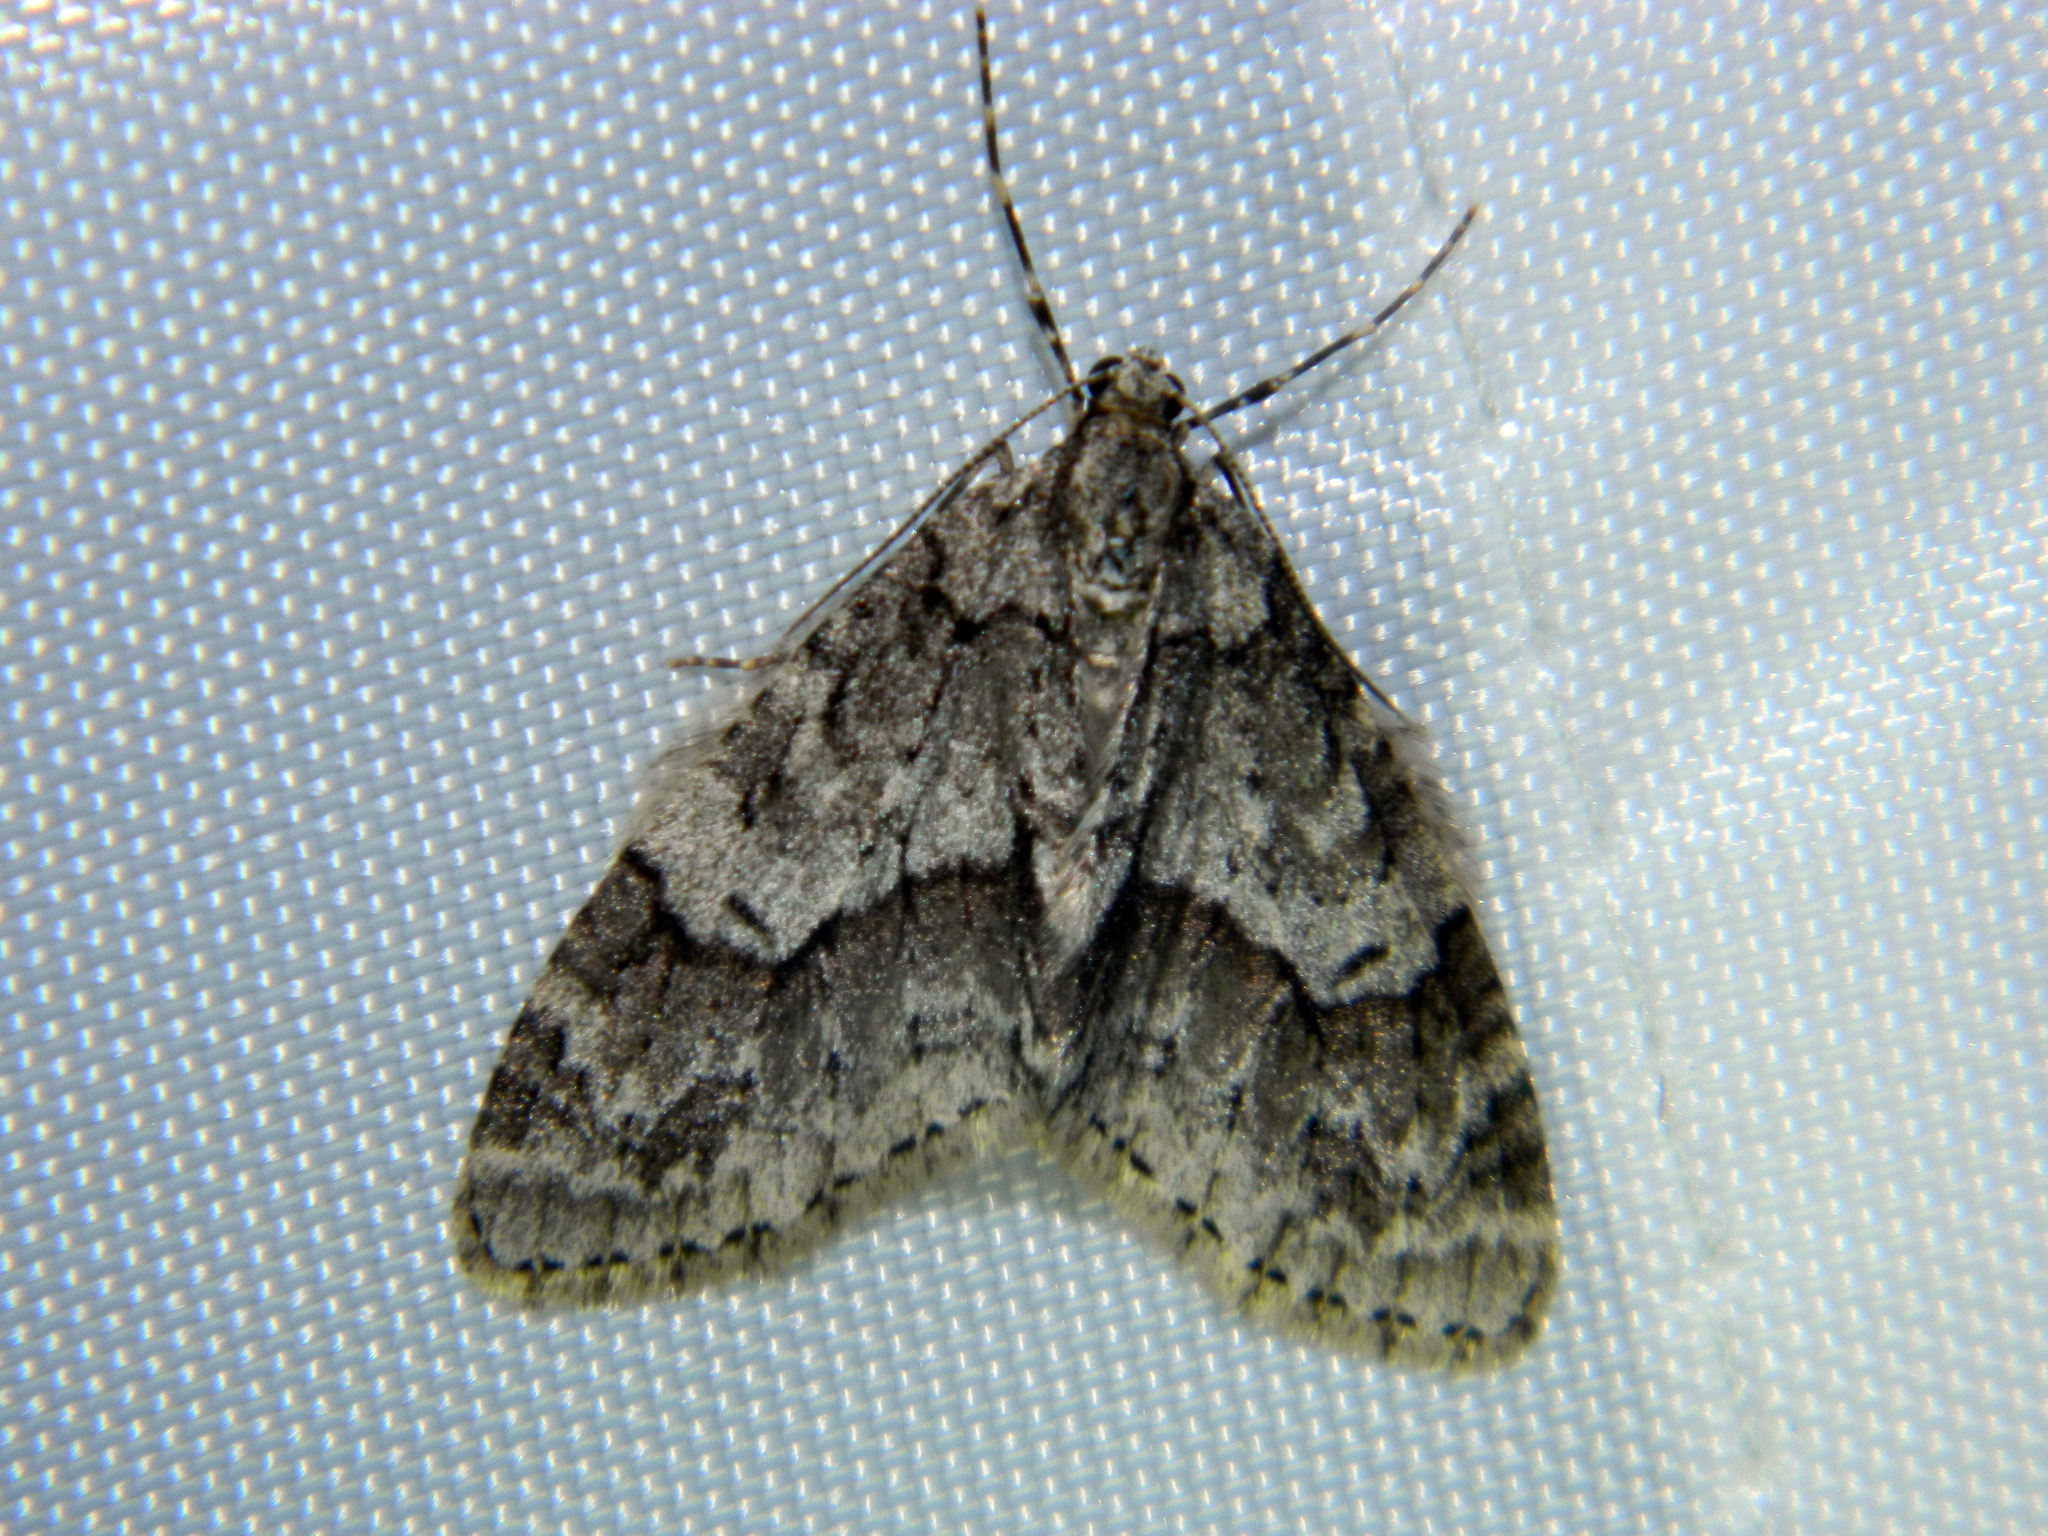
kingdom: Animalia
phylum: Arthropoda
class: Insecta
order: Lepidoptera
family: Geometridae
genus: Cladara
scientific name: Cladara limitaria
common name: Mottled gray carpet
